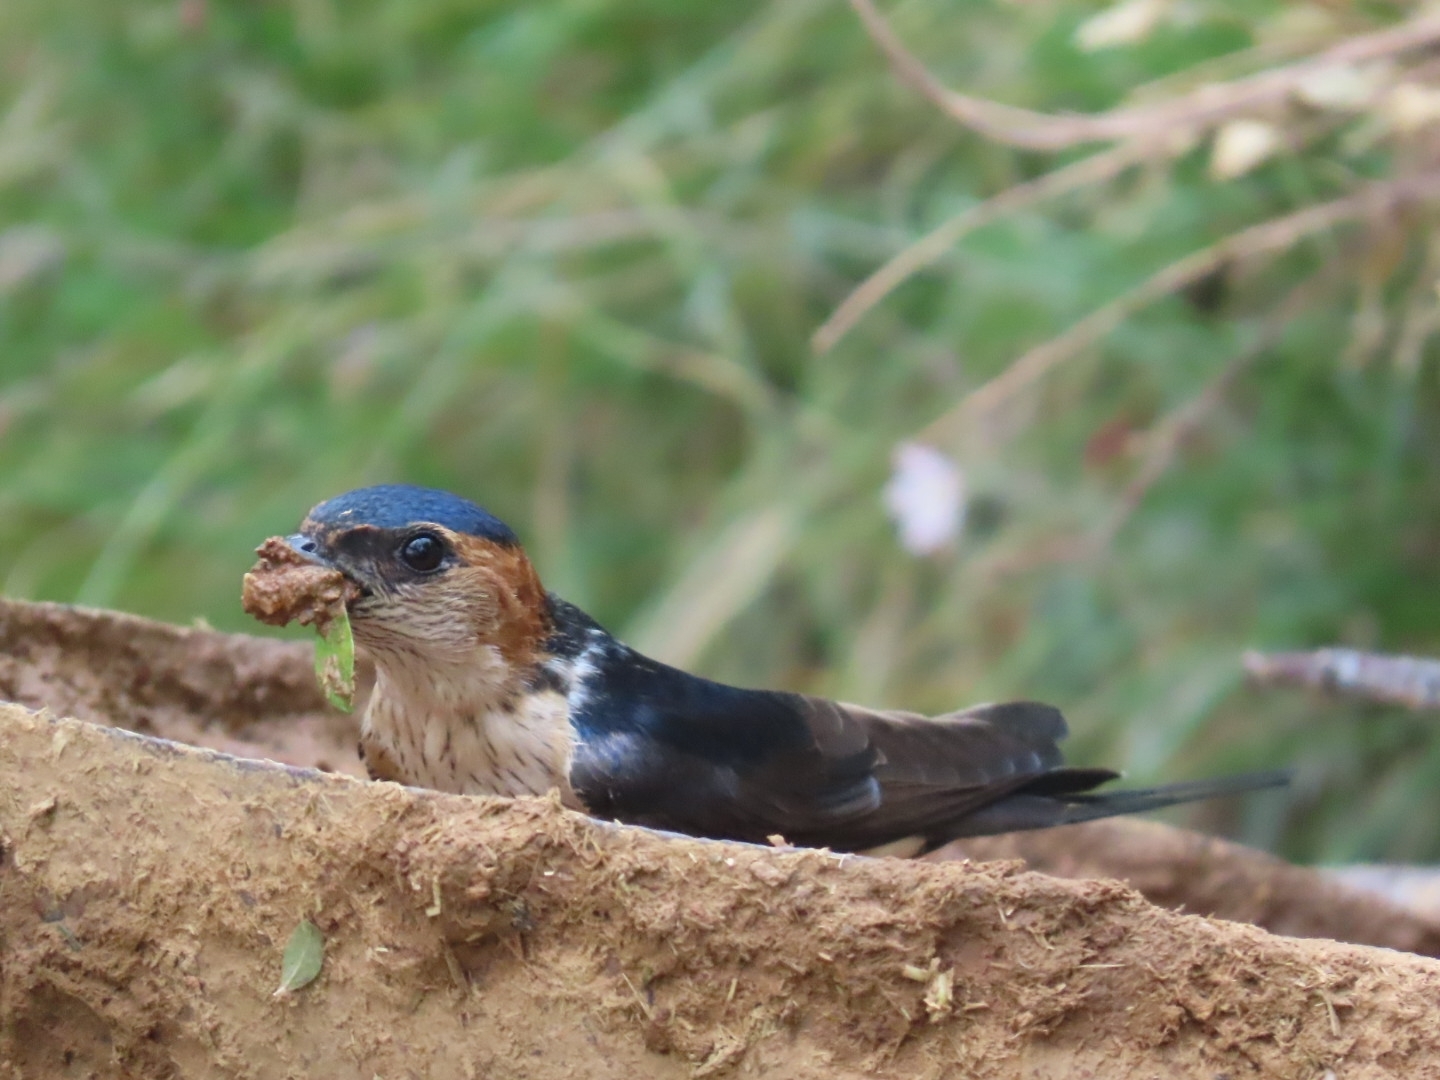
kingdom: Animalia
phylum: Chordata
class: Aves
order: Passeriformes
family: Hirundinidae
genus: Cecropis
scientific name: Cecropis daurica
